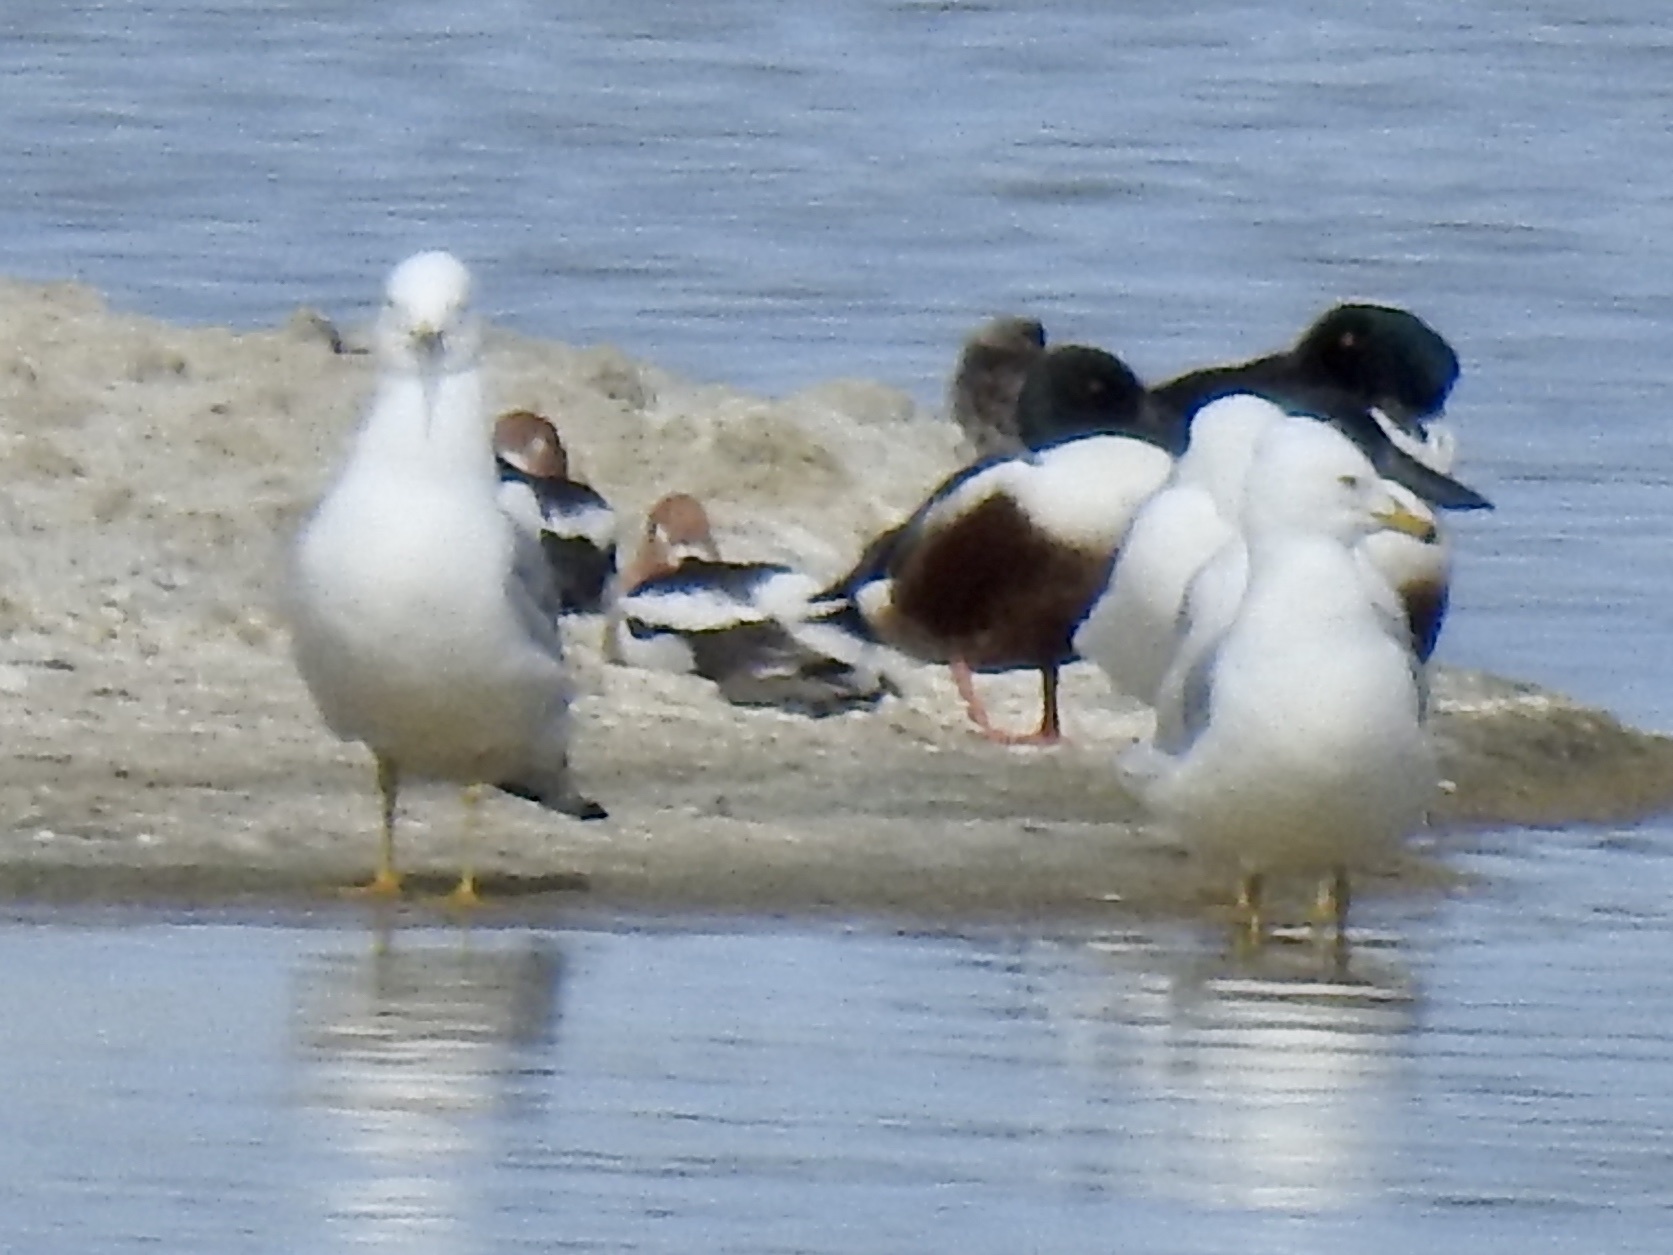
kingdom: Animalia
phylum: Chordata
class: Aves
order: Charadriiformes
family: Laridae
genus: Larus
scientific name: Larus delawarensis
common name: Ring-billed gull
